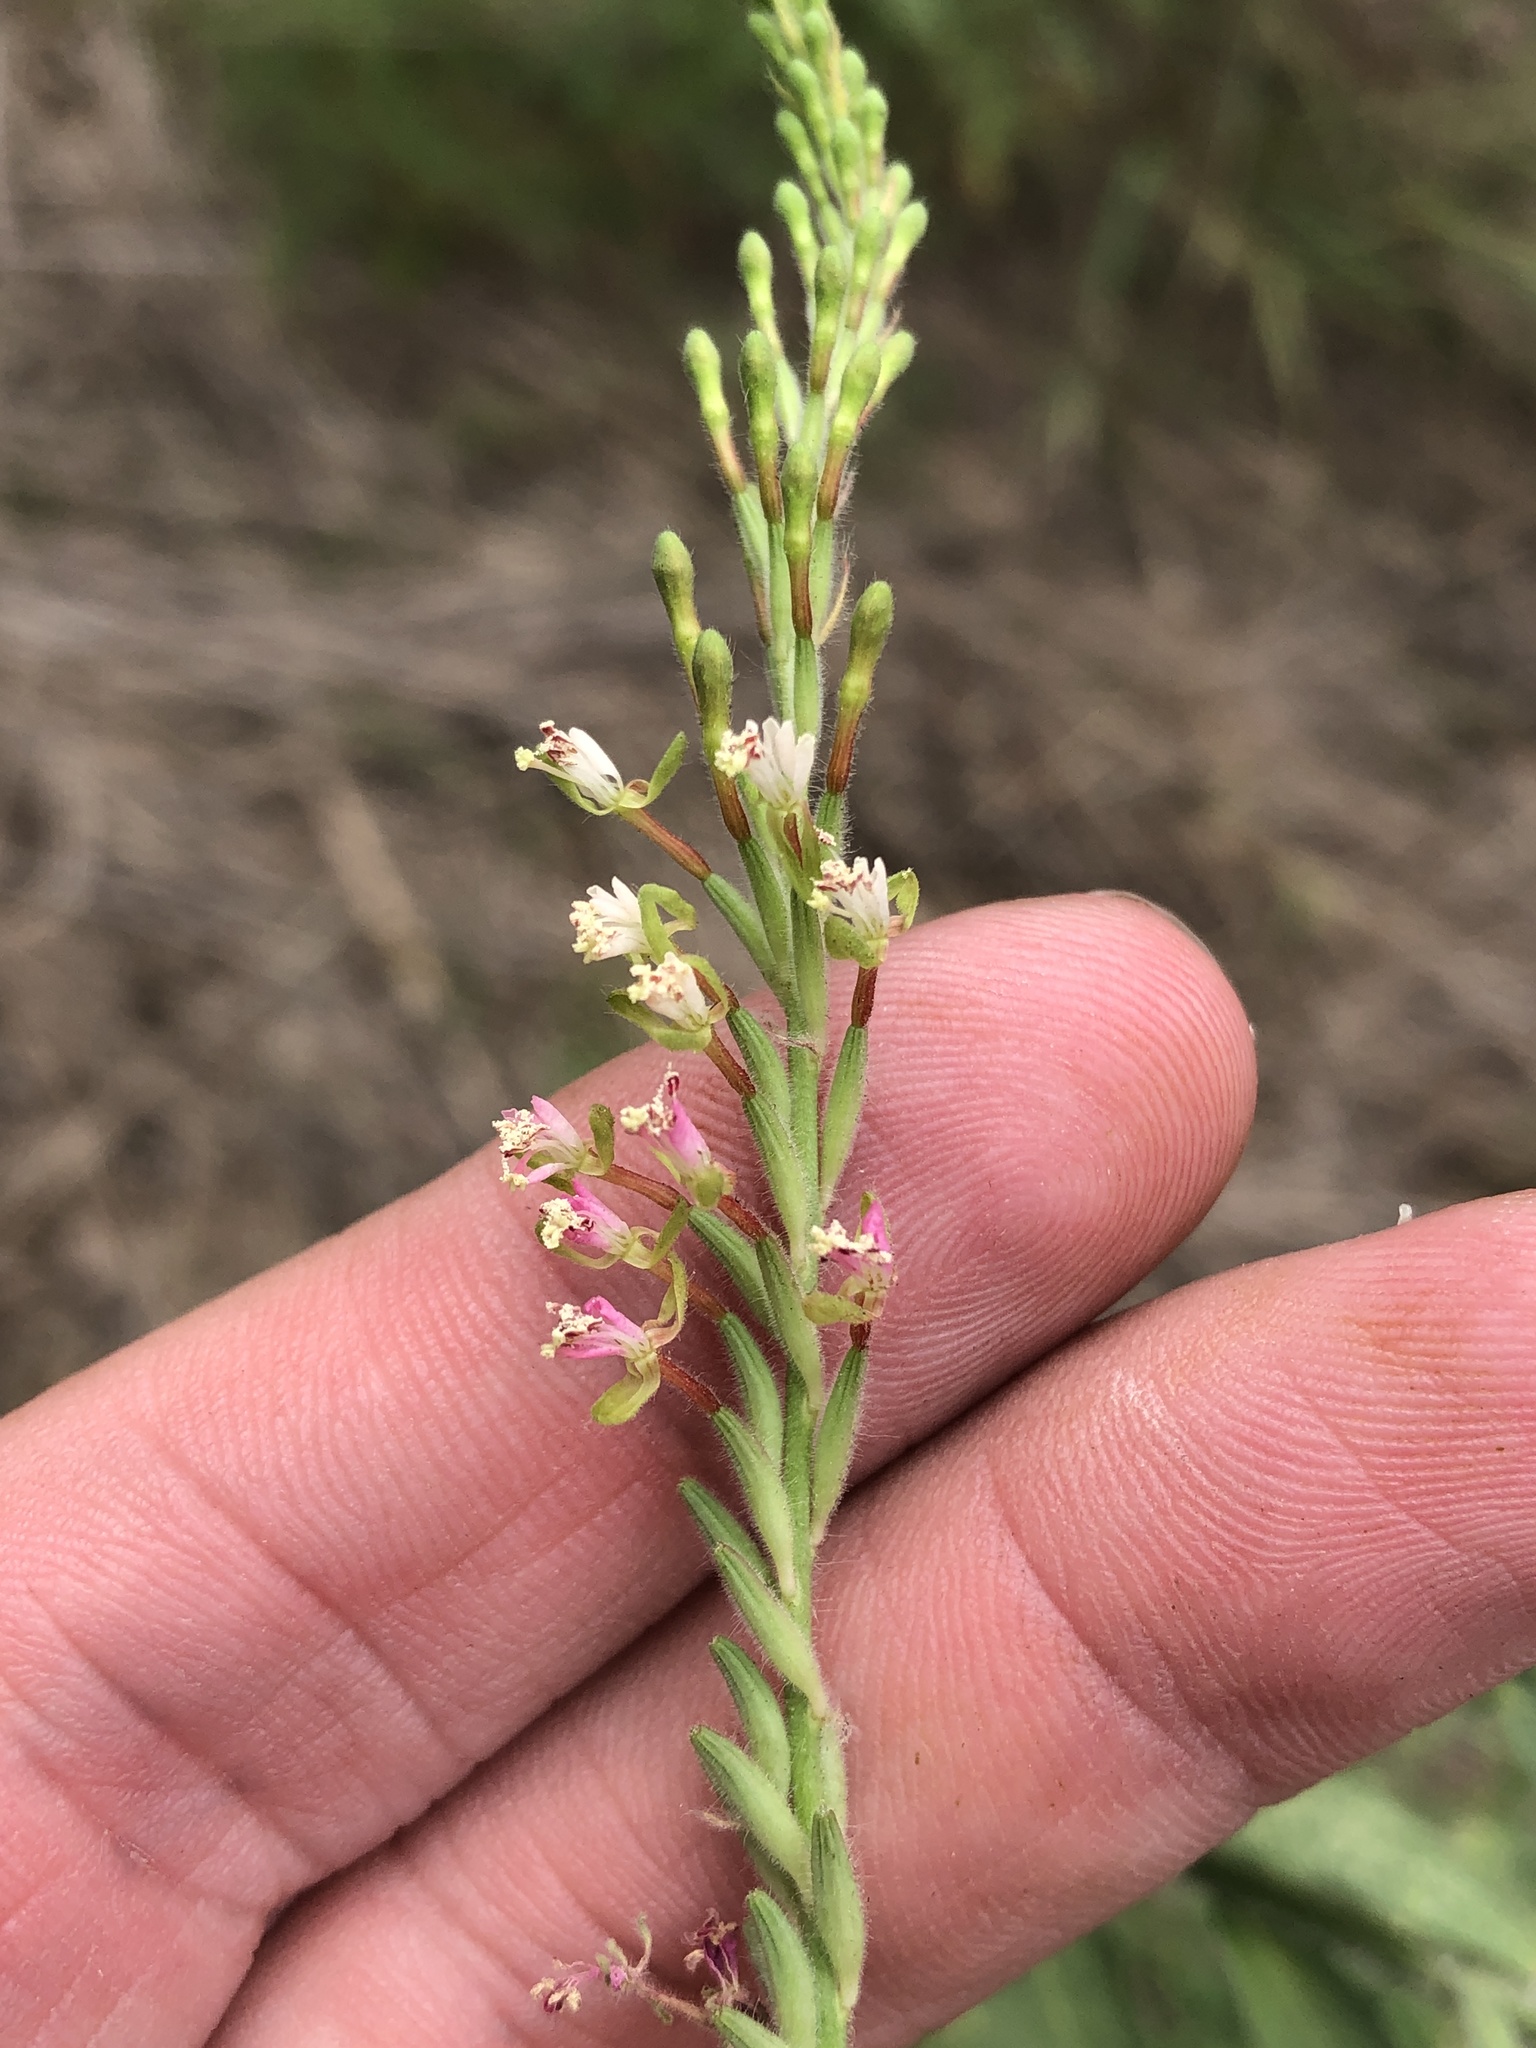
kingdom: Plantae
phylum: Tracheophyta
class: Magnoliopsida
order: Myrtales
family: Onagraceae
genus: Oenothera
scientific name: Oenothera curtiflora
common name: Velvetweed
